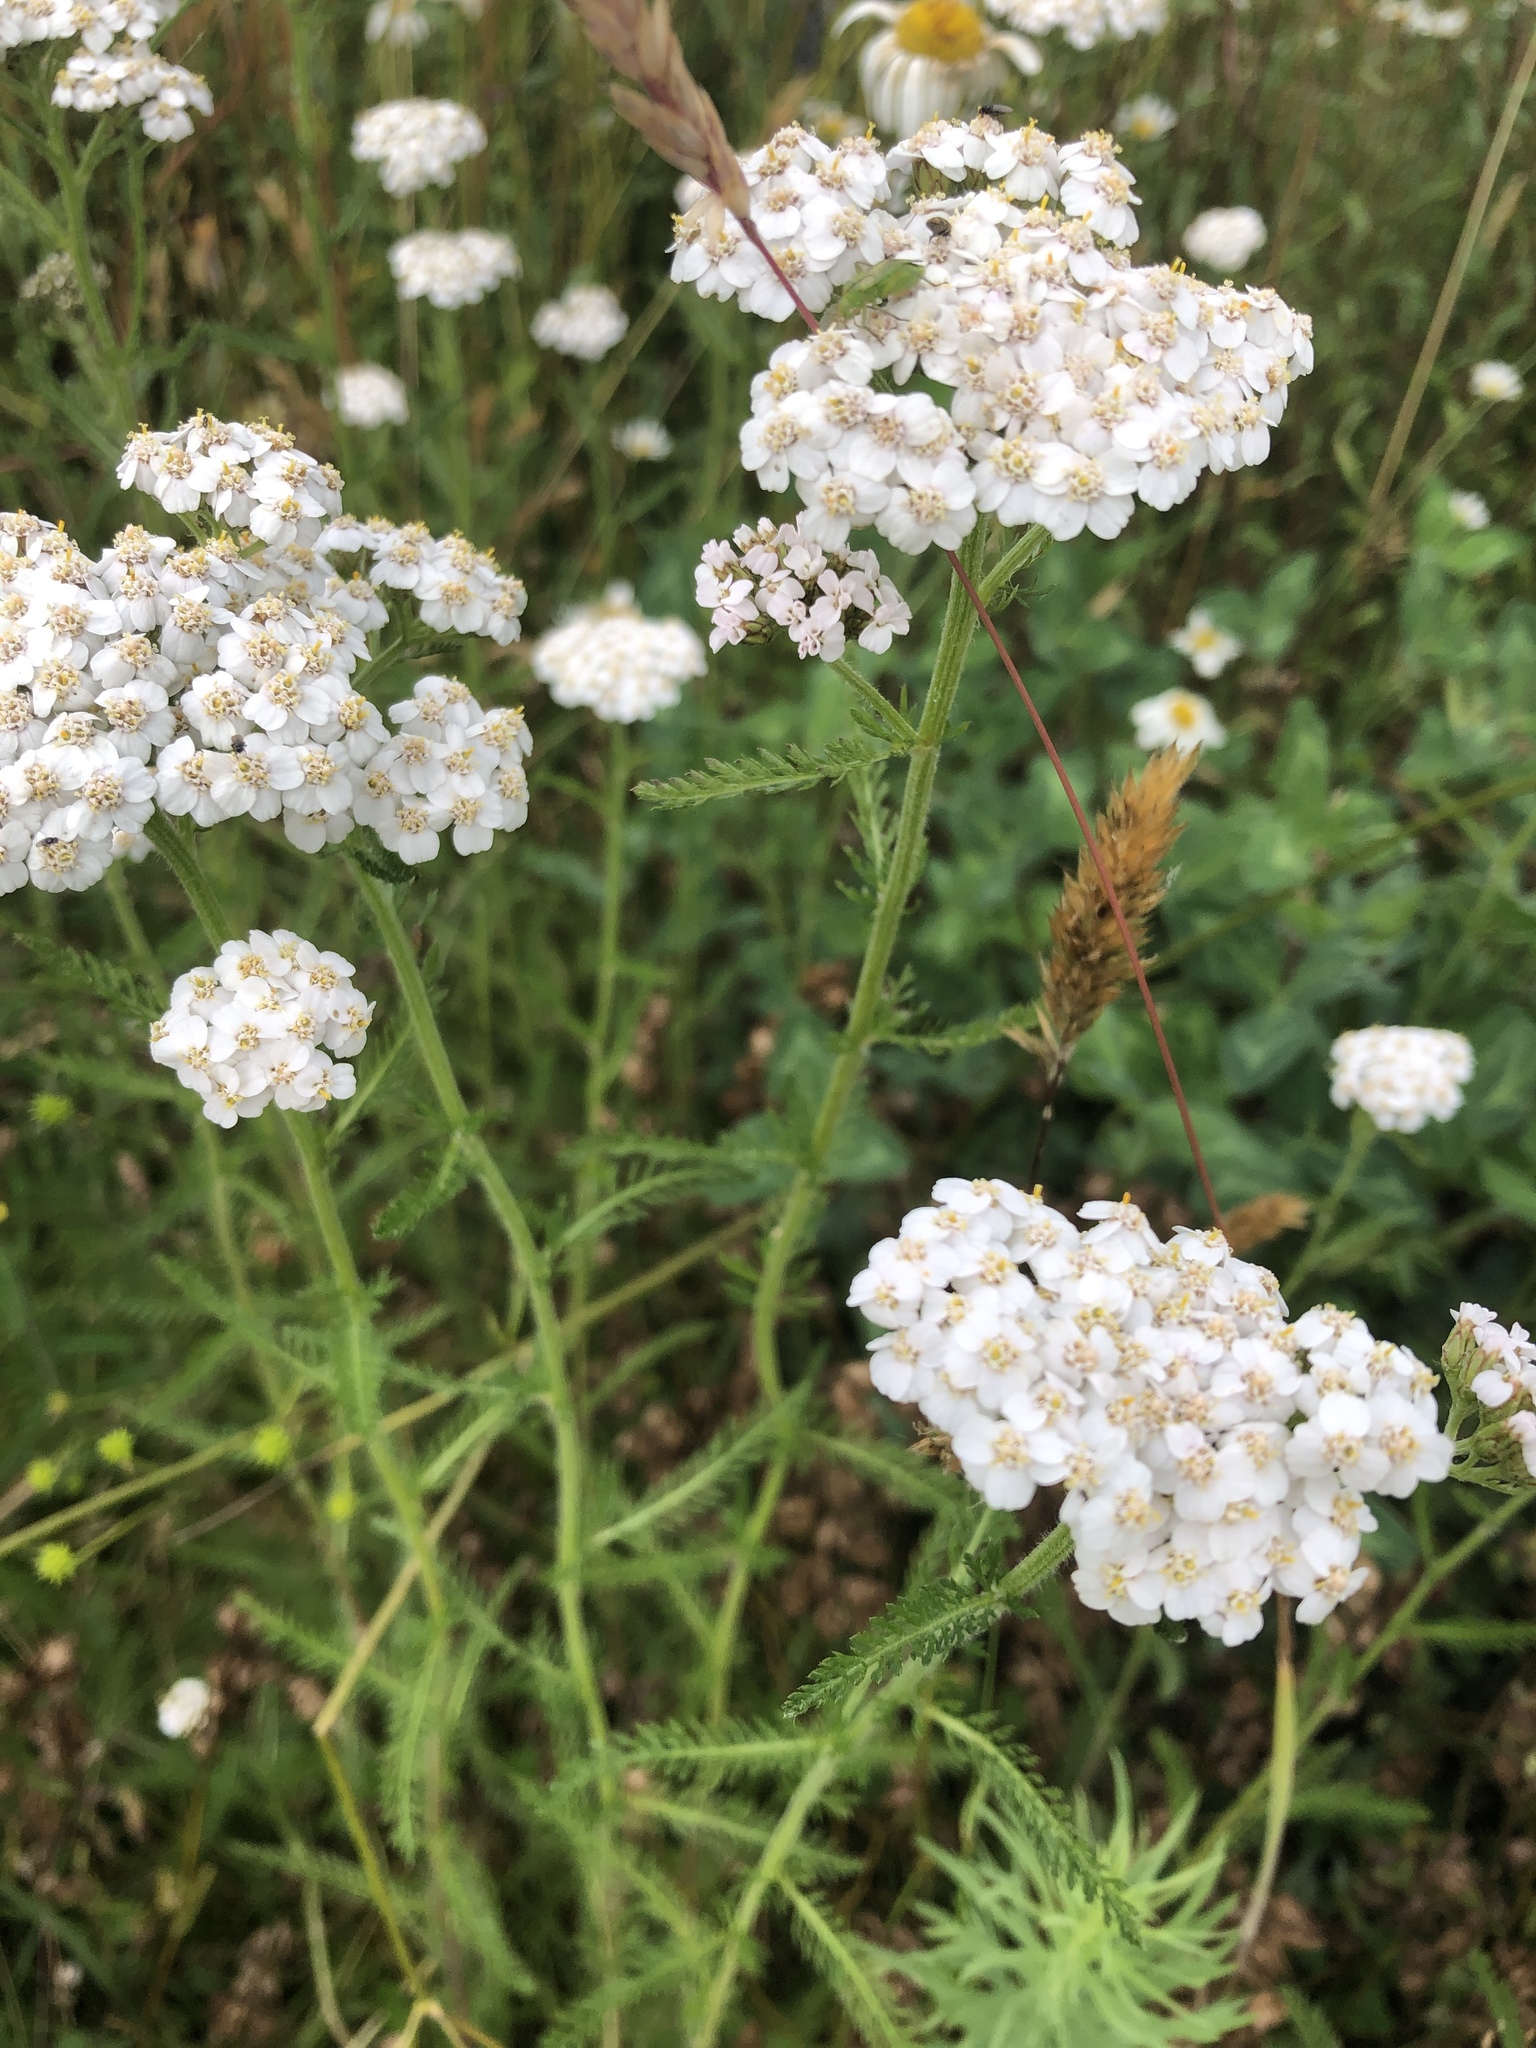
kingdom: Plantae
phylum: Tracheophyta
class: Magnoliopsida
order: Asterales
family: Asteraceae
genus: Achillea
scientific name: Achillea millefolium
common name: Yarrow
